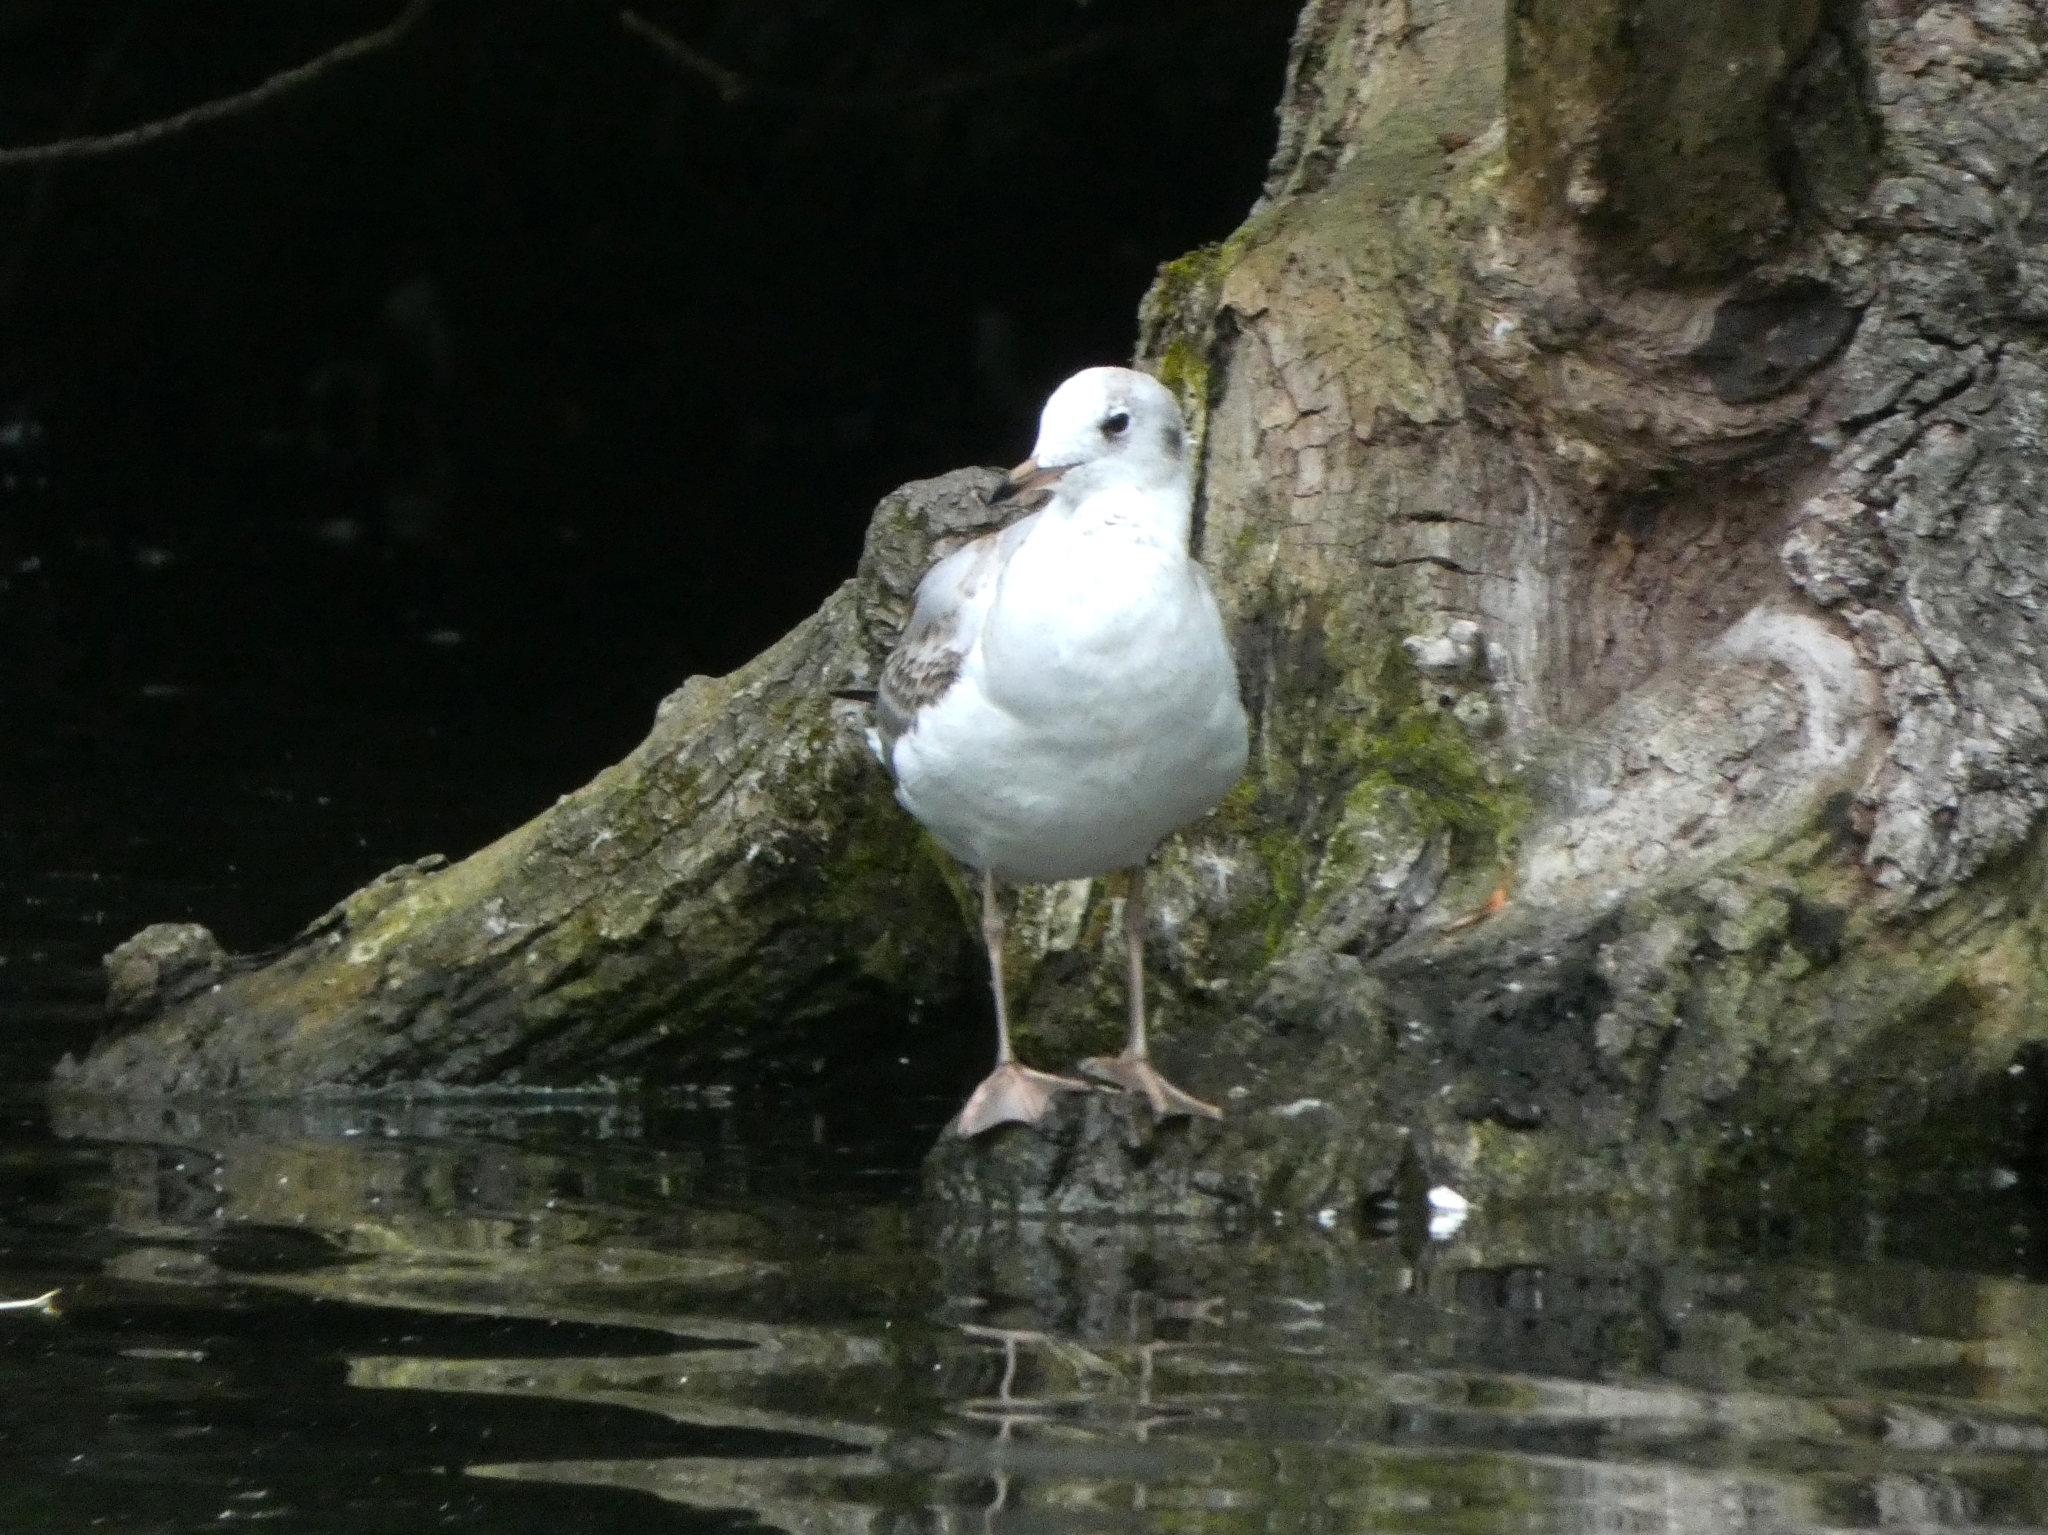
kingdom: Animalia
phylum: Chordata
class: Aves
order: Charadriiformes
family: Laridae
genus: Chroicocephalus
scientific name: Chroicocephalus ridibundus
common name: Black-headed gull
